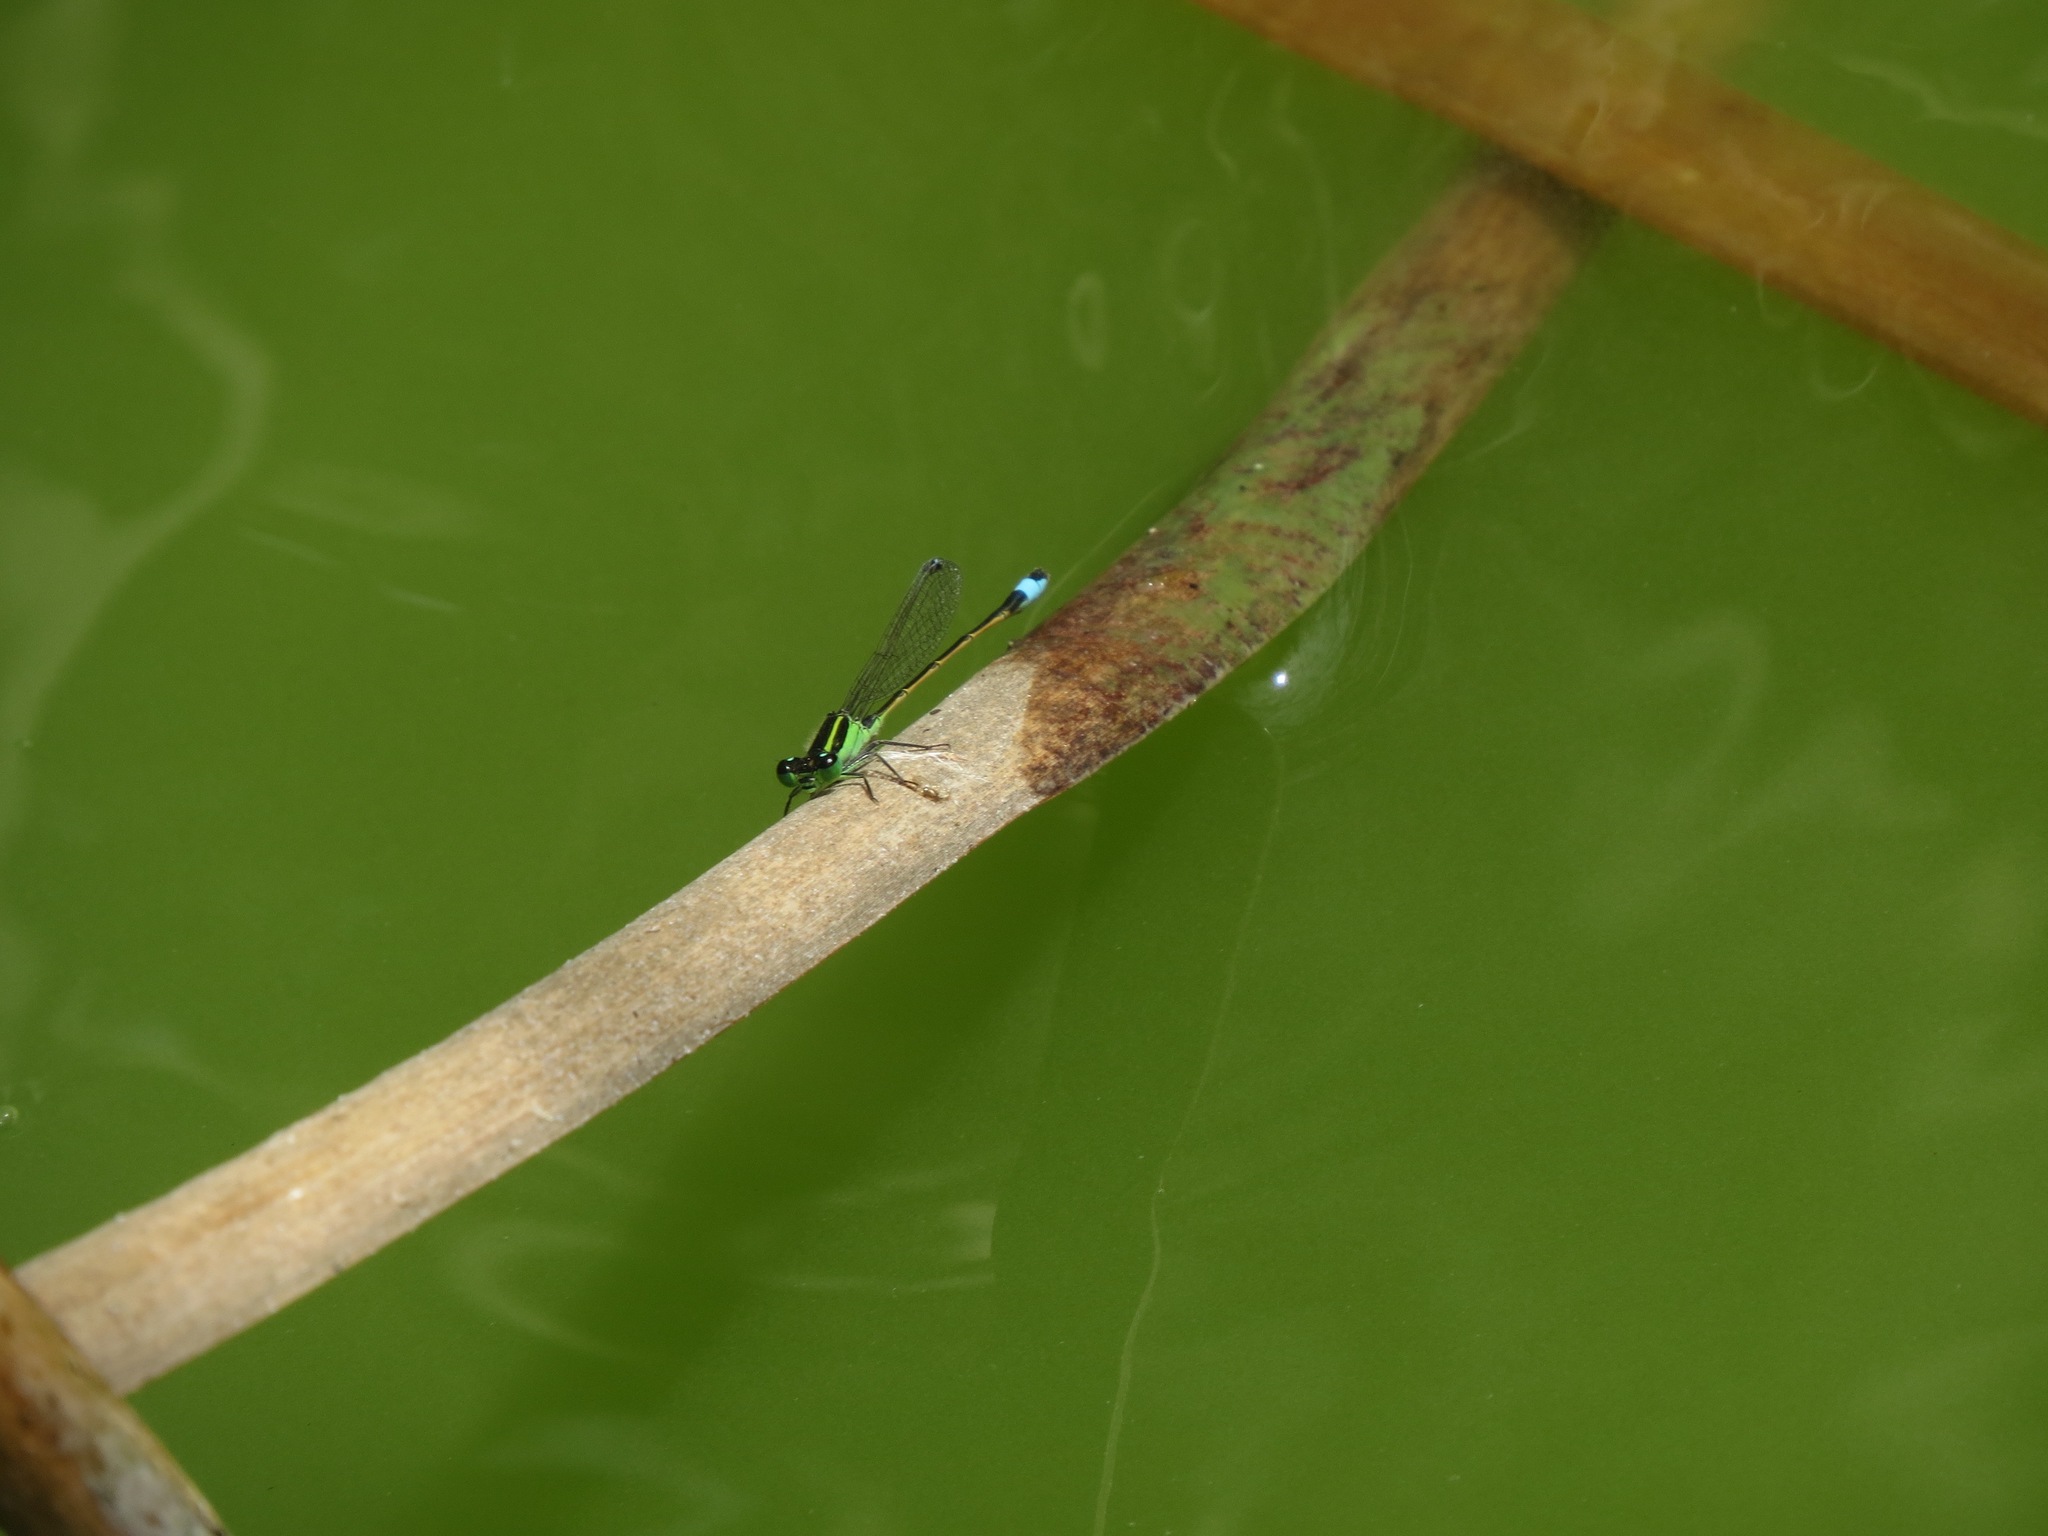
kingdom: Animalia
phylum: Arthropoda
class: Insecta
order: Odonata
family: Coenagrionidae
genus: Ischnura
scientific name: Ischnura ramburii
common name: Rambur's forktail
